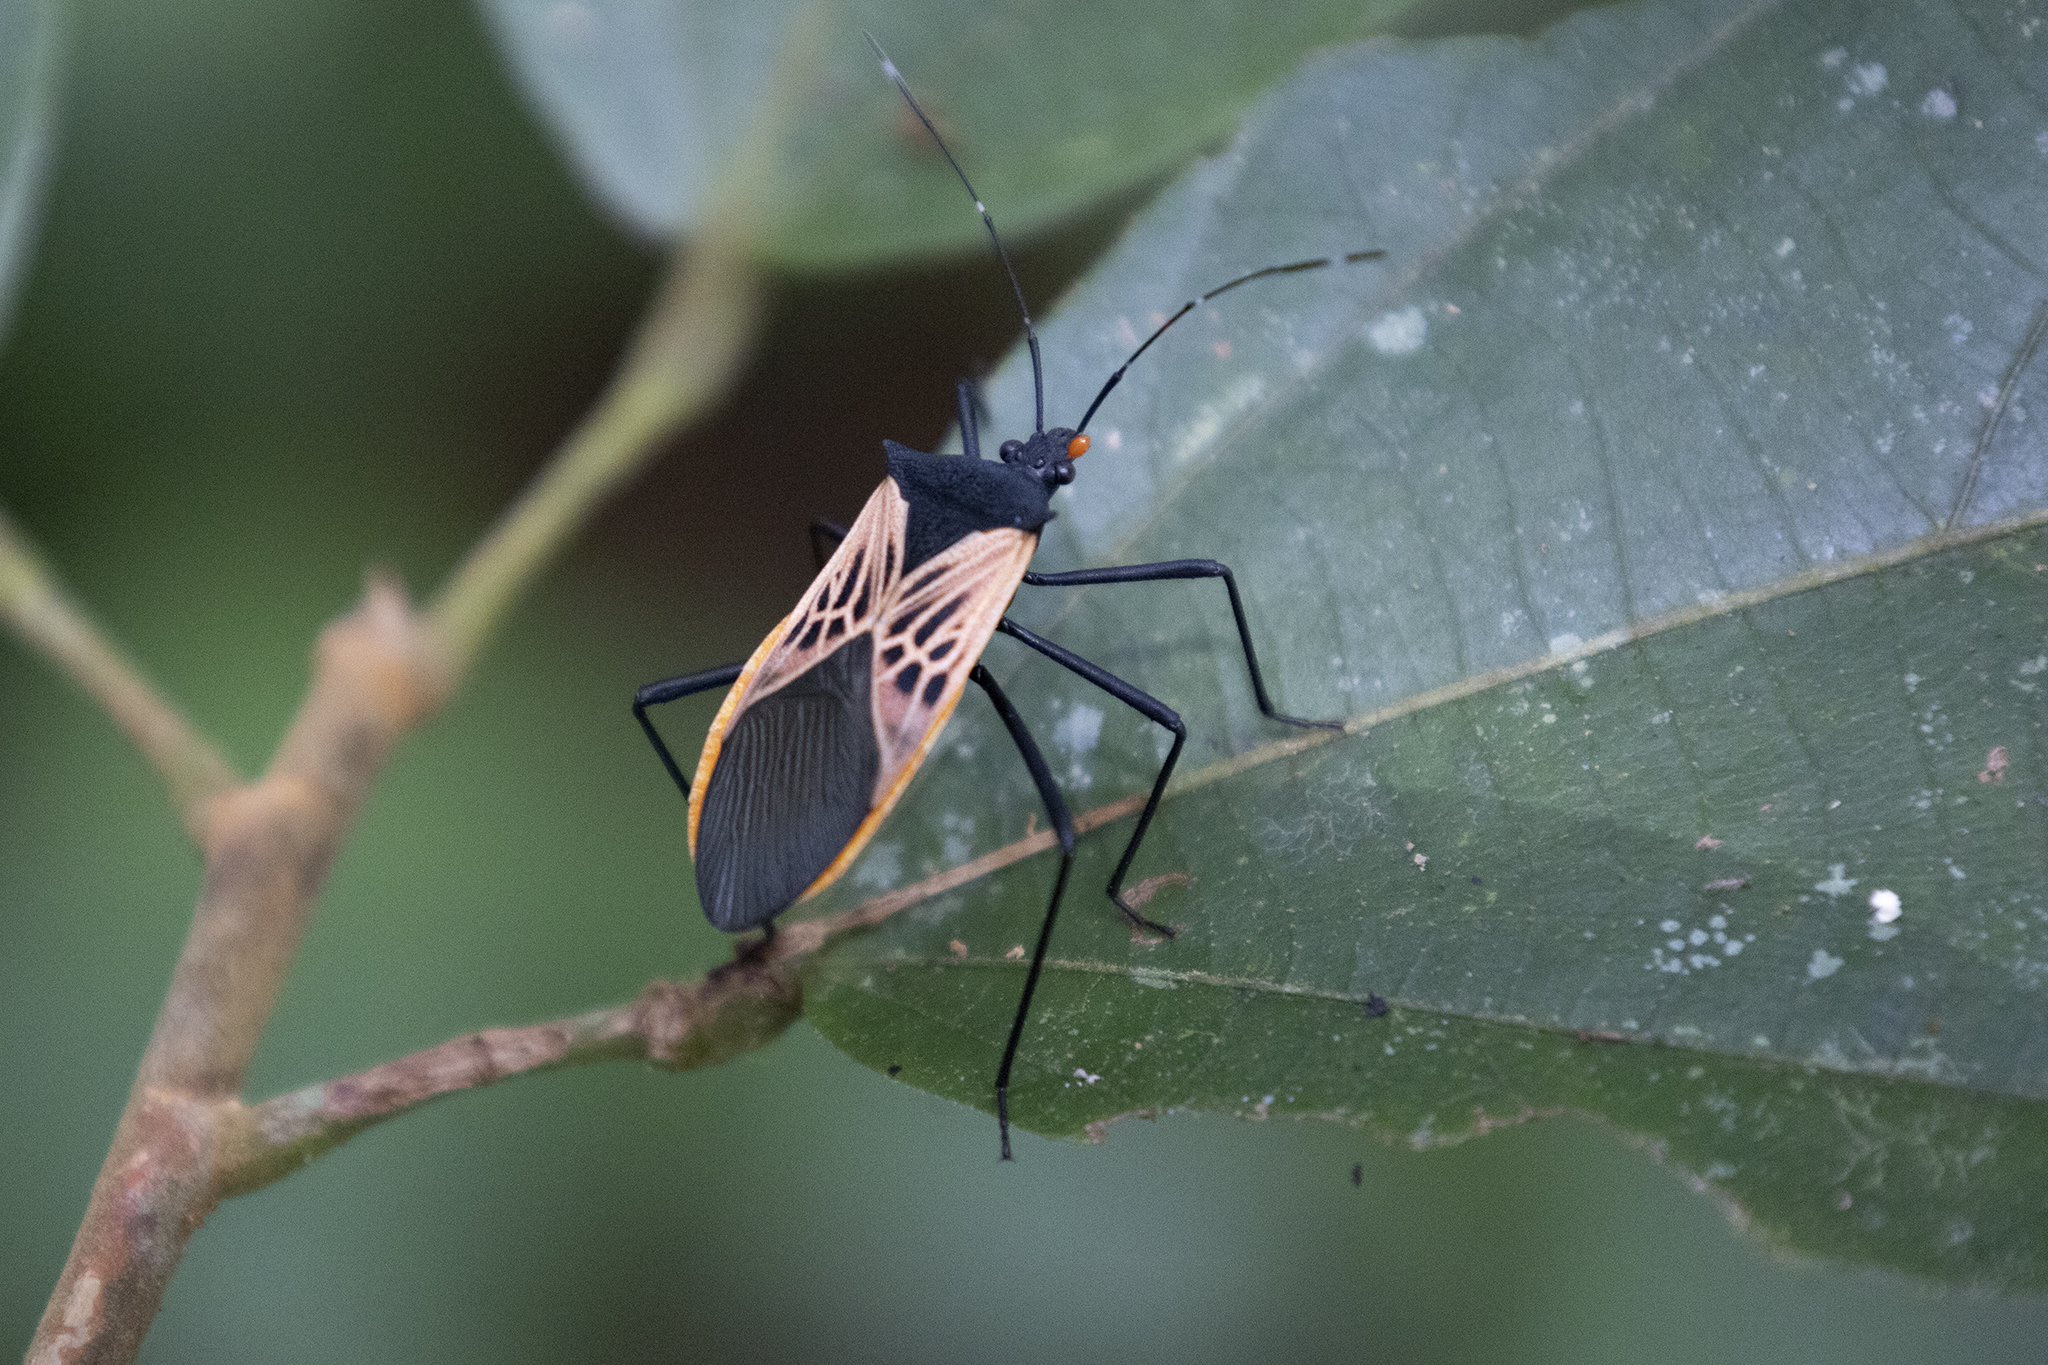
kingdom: Animalia
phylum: Arthropoda
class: Insecta
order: Hemiptera
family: Coreidae
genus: Leptoscelis
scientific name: Leptoscelis limbativentris
